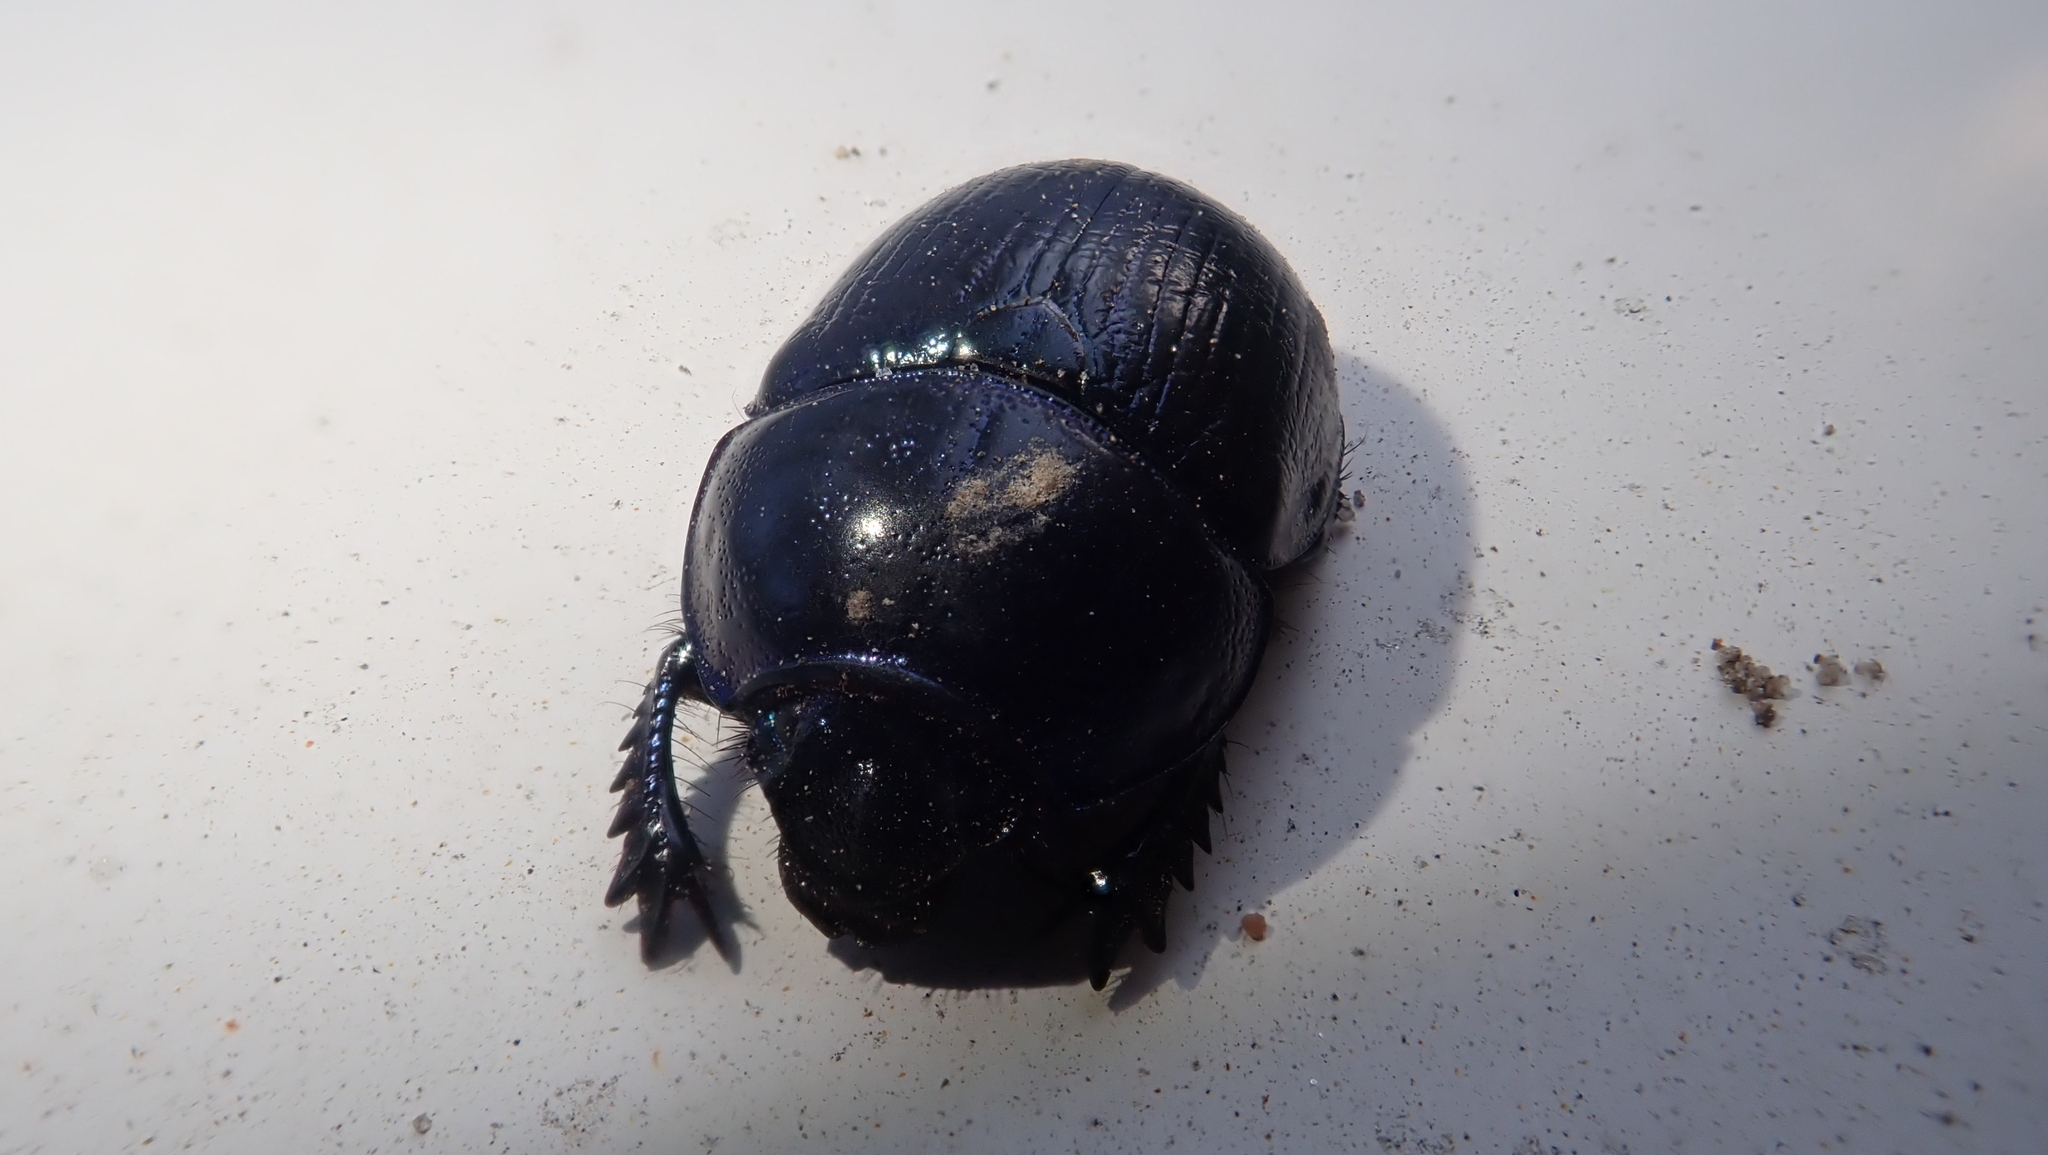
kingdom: Animalia
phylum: Arthropoda
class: Insecta
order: Coleoptera
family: Geotrupidae
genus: Geotrupes
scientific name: Geotrupes stercorarius
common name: Earth-boring dung beetle
